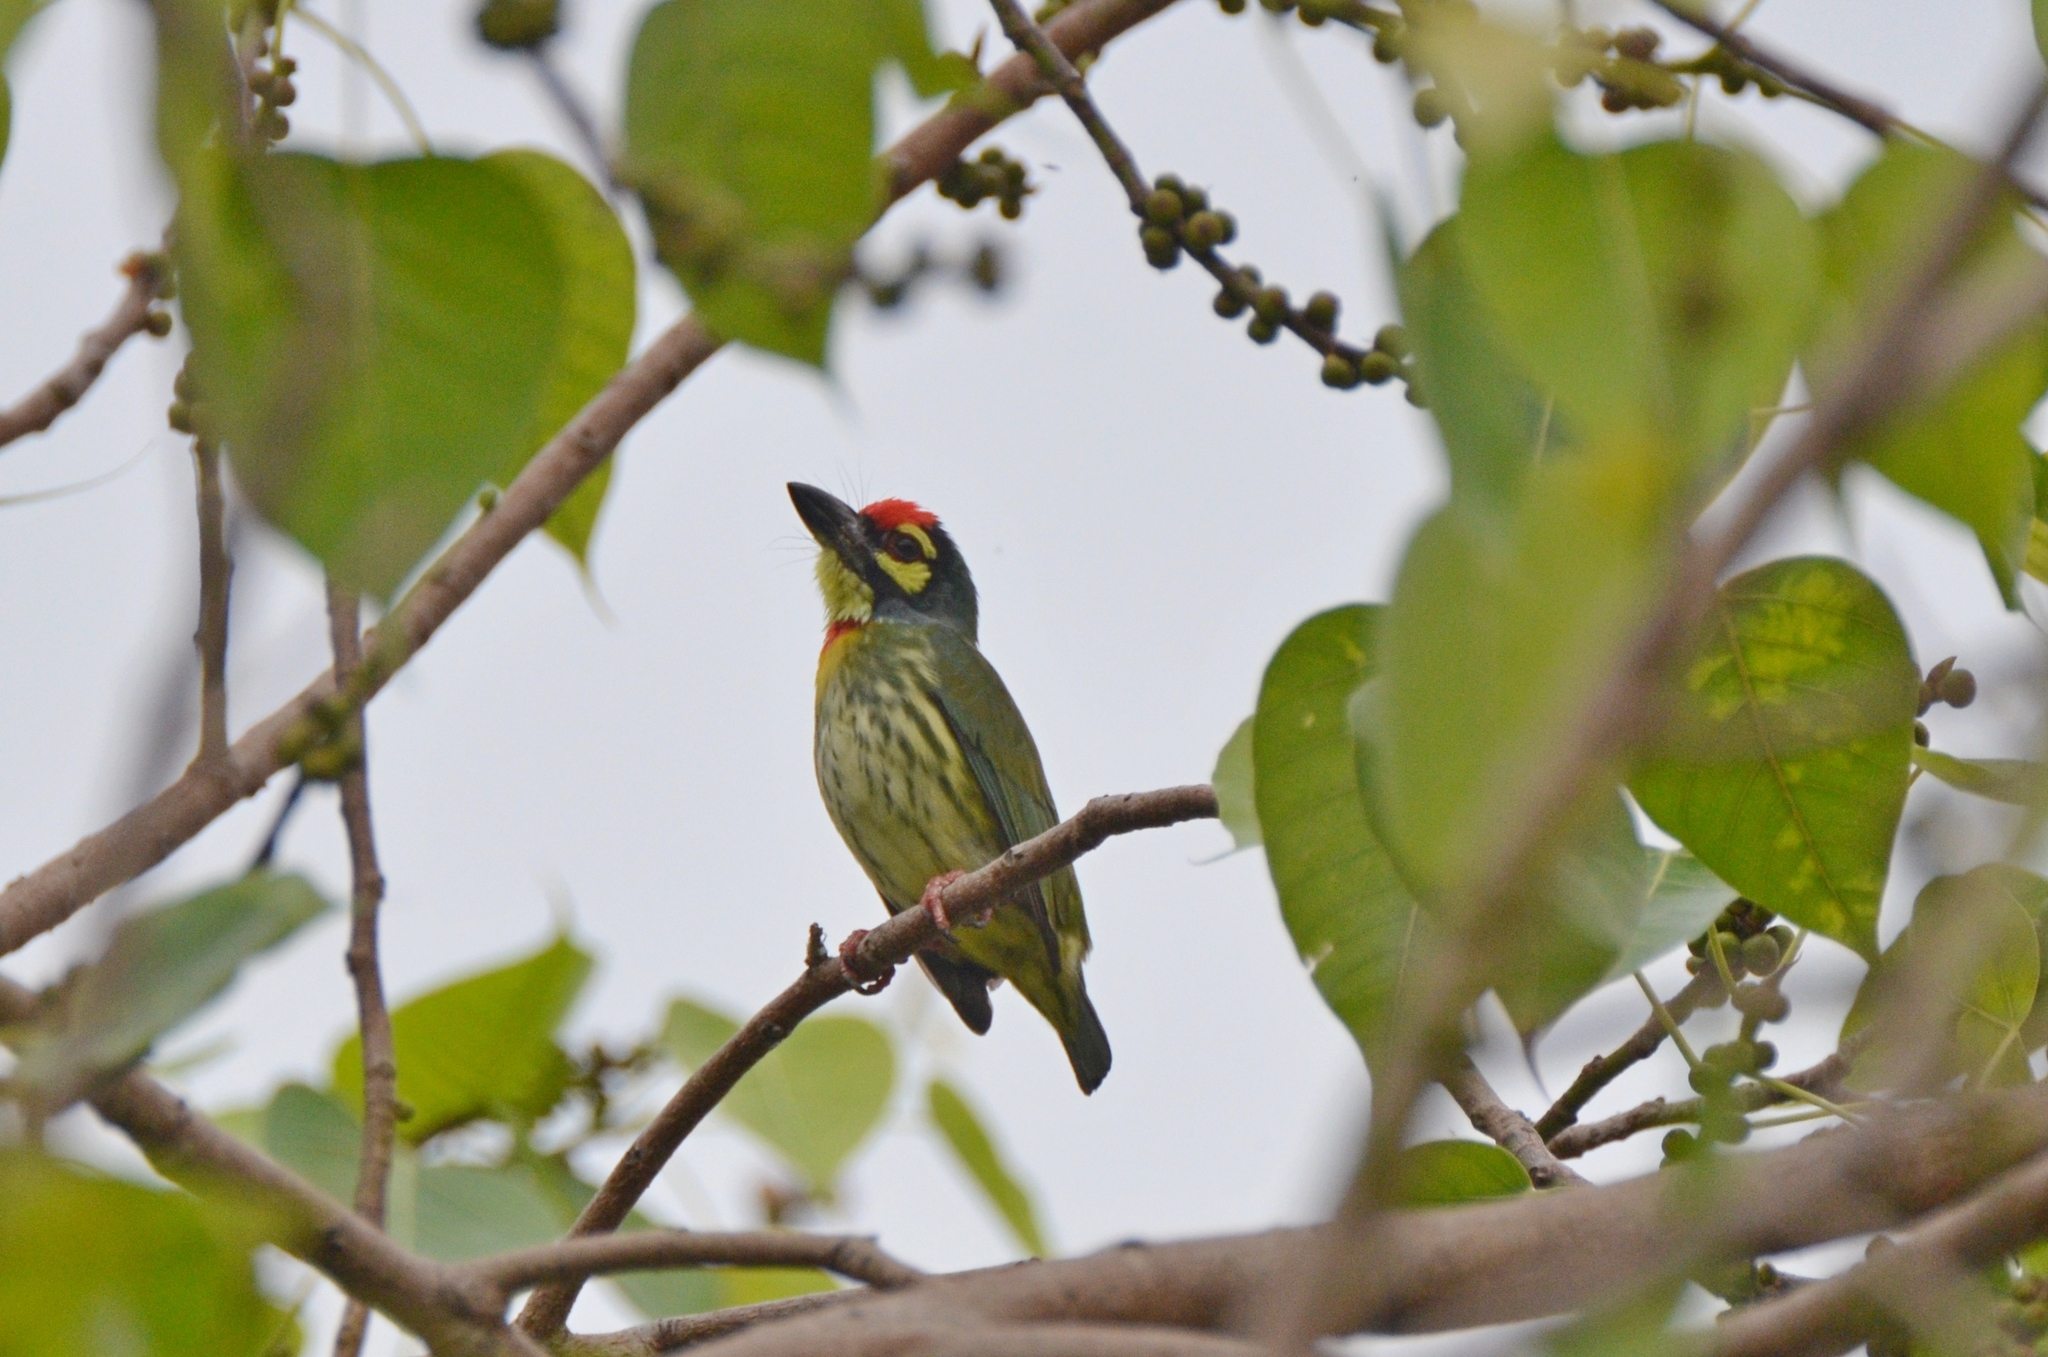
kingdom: Animalia
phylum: Chordata
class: Aves
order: Piciformes
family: Megalaimidae
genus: Psilopogon
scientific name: Psilopogon haemacephalus
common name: Coppersmith barbet
